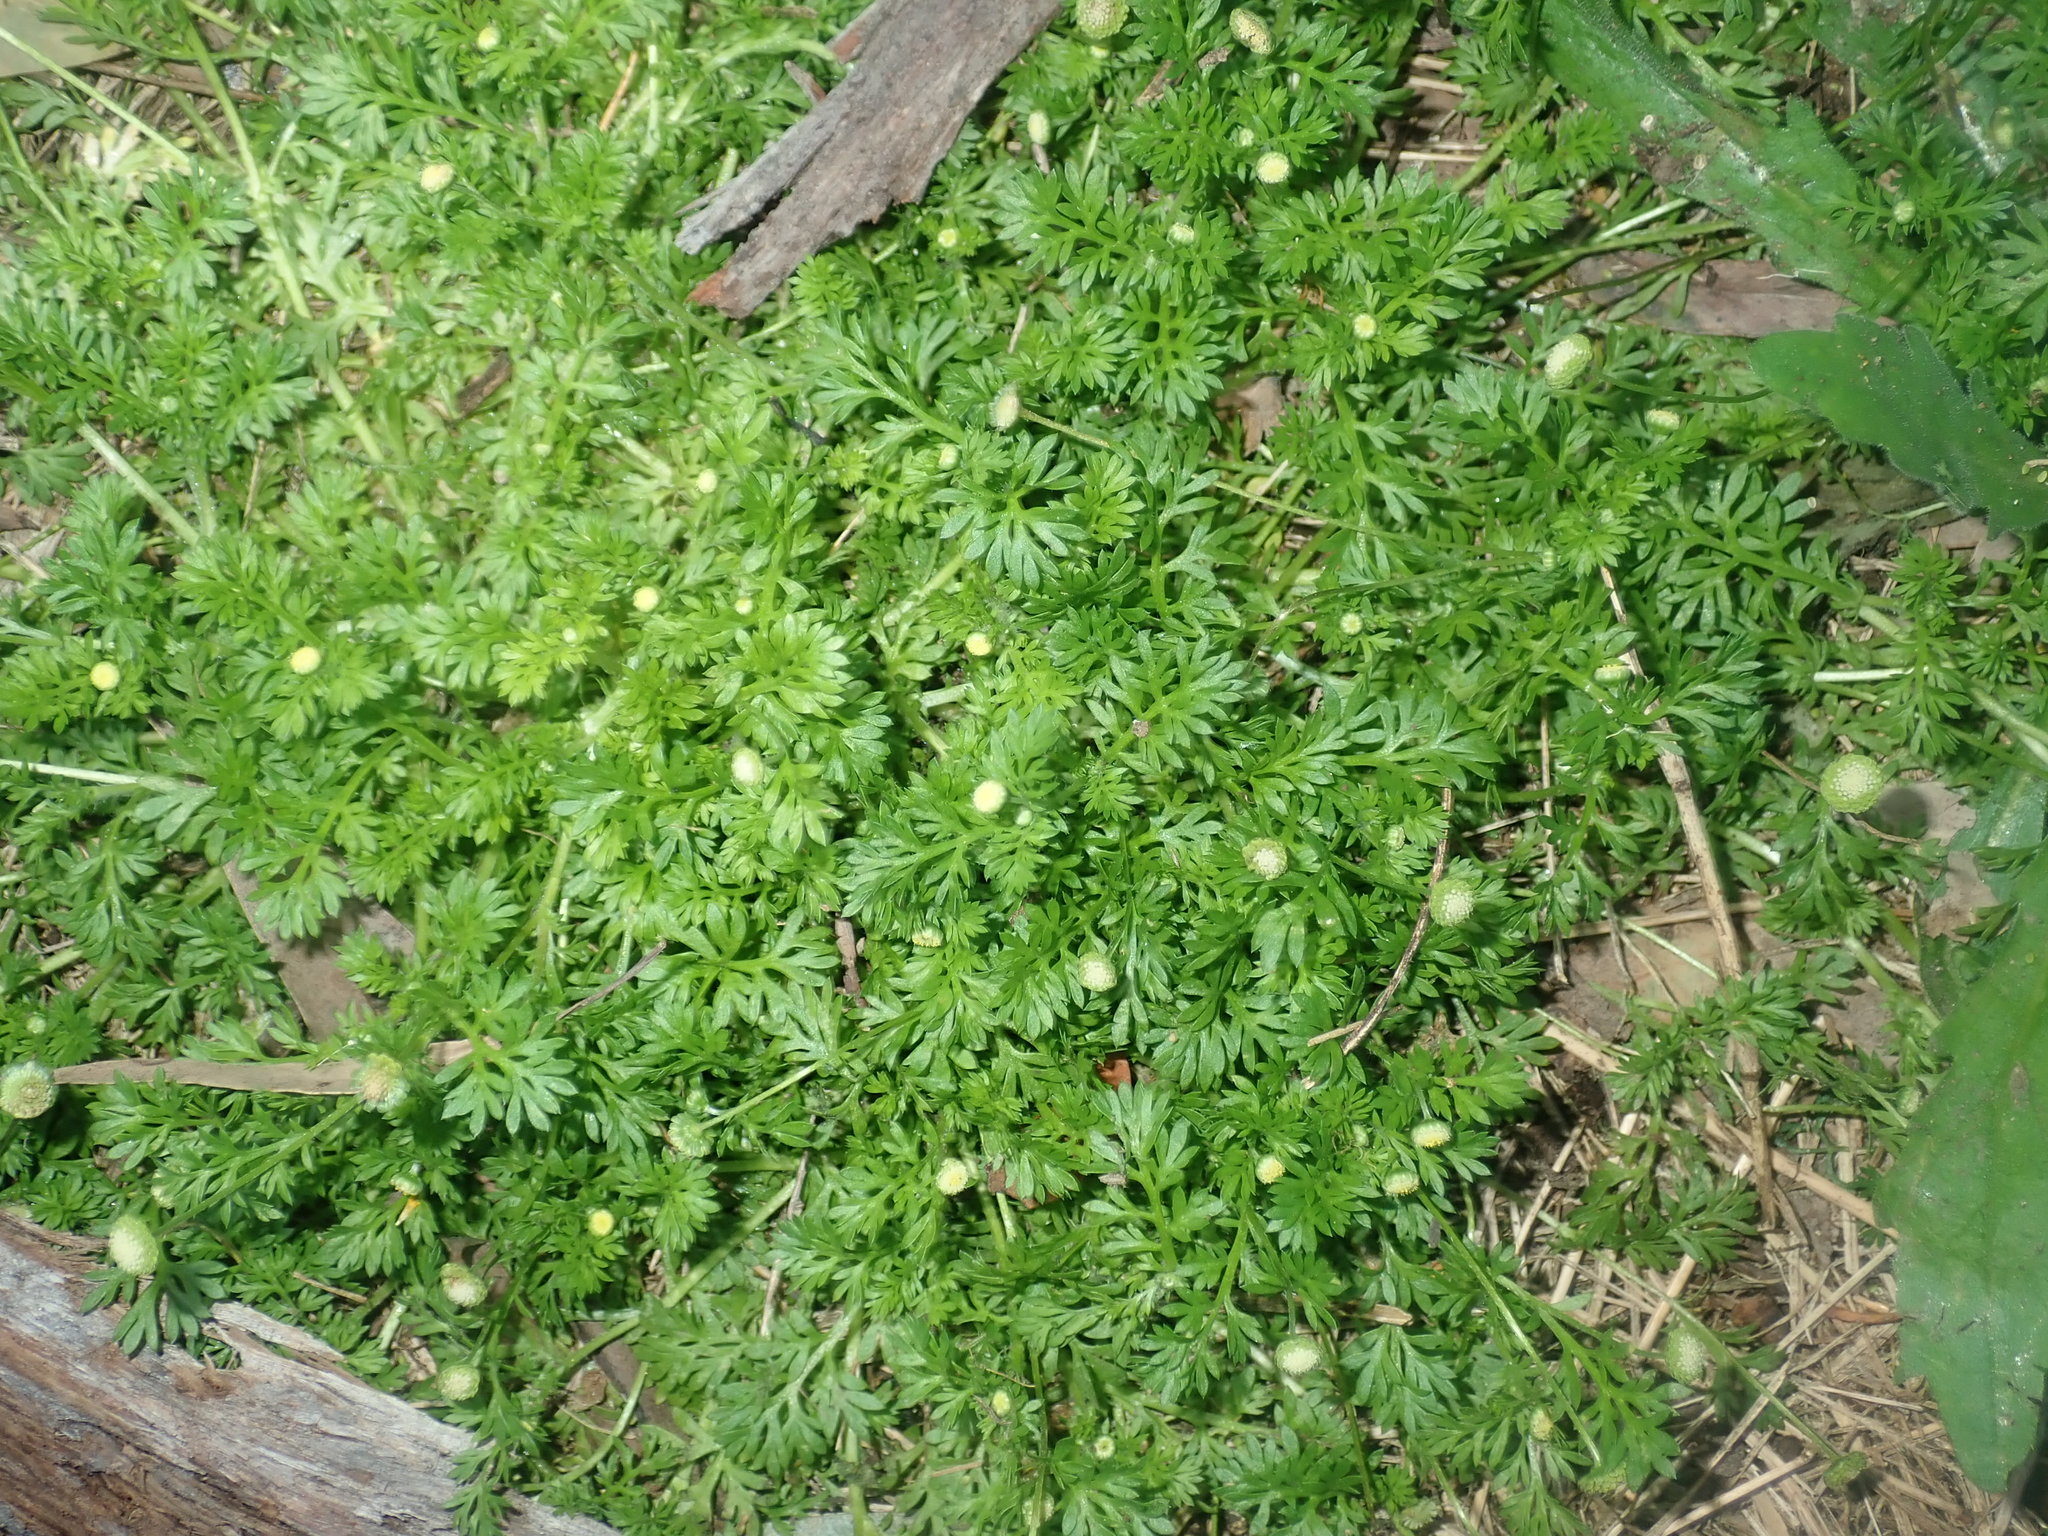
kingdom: Plantae
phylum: Tracheophyta
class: Magnoliopsida
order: Asterales
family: Asteraceae
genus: Cotula
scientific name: Cotula australis
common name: Australian waterbuttons
